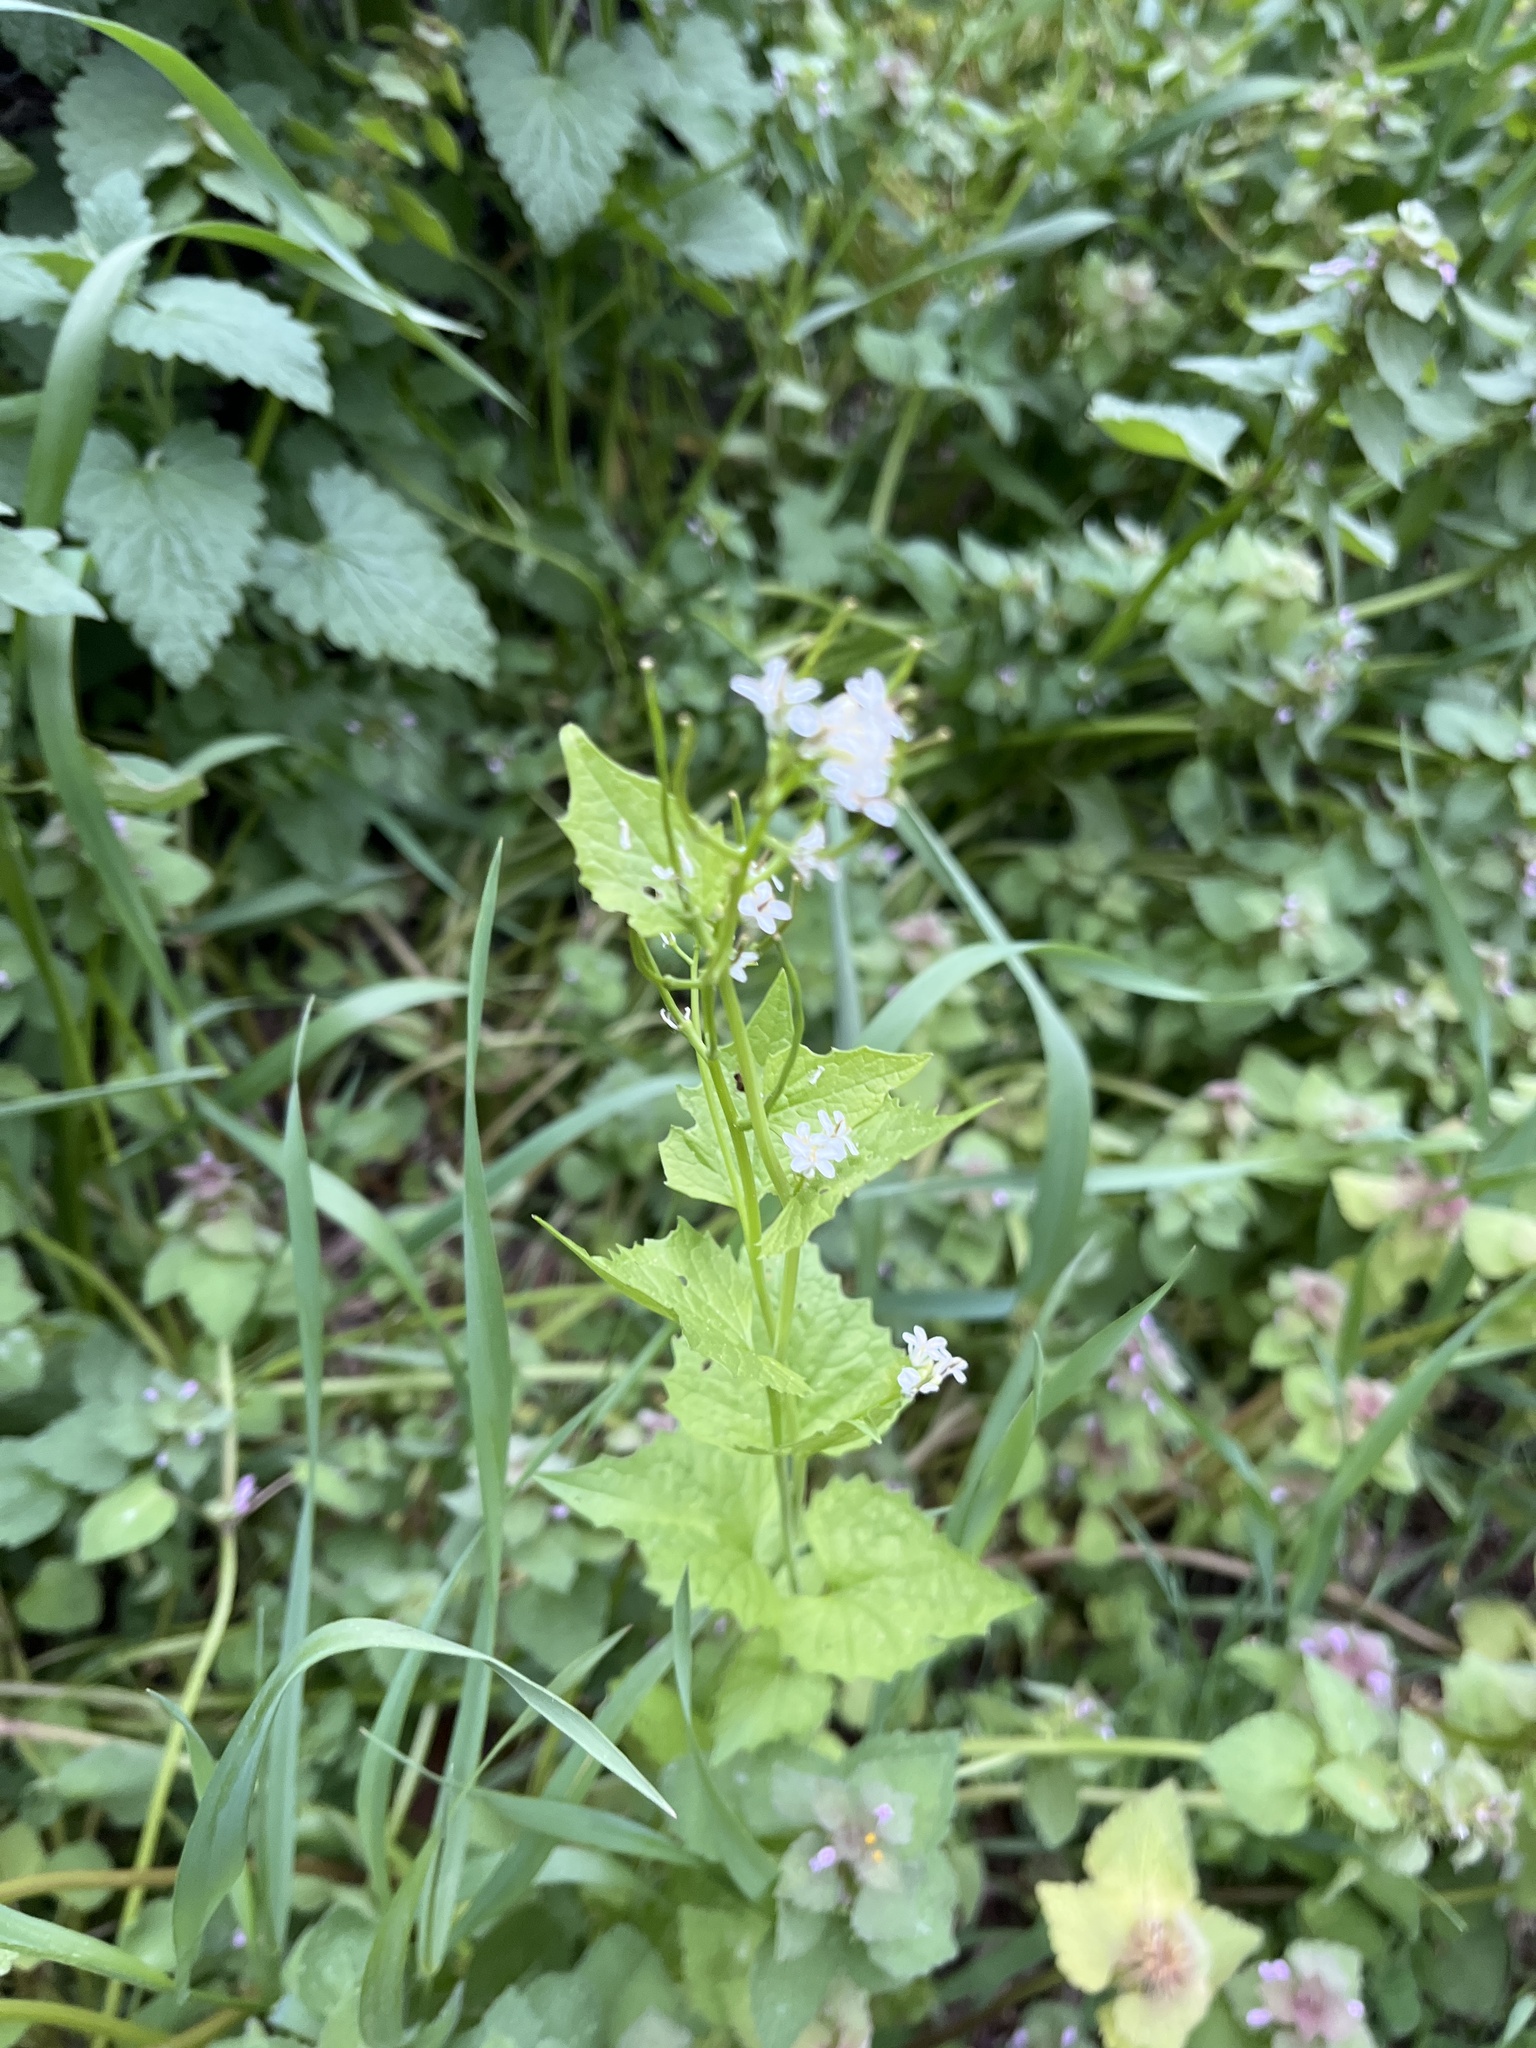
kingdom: Plantae
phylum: Tracheophyta
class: Magnoliopsida
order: Brassicales
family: Brassicaceae
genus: Alliaria
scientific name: Alliaria petiolata
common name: Garlic mustard
